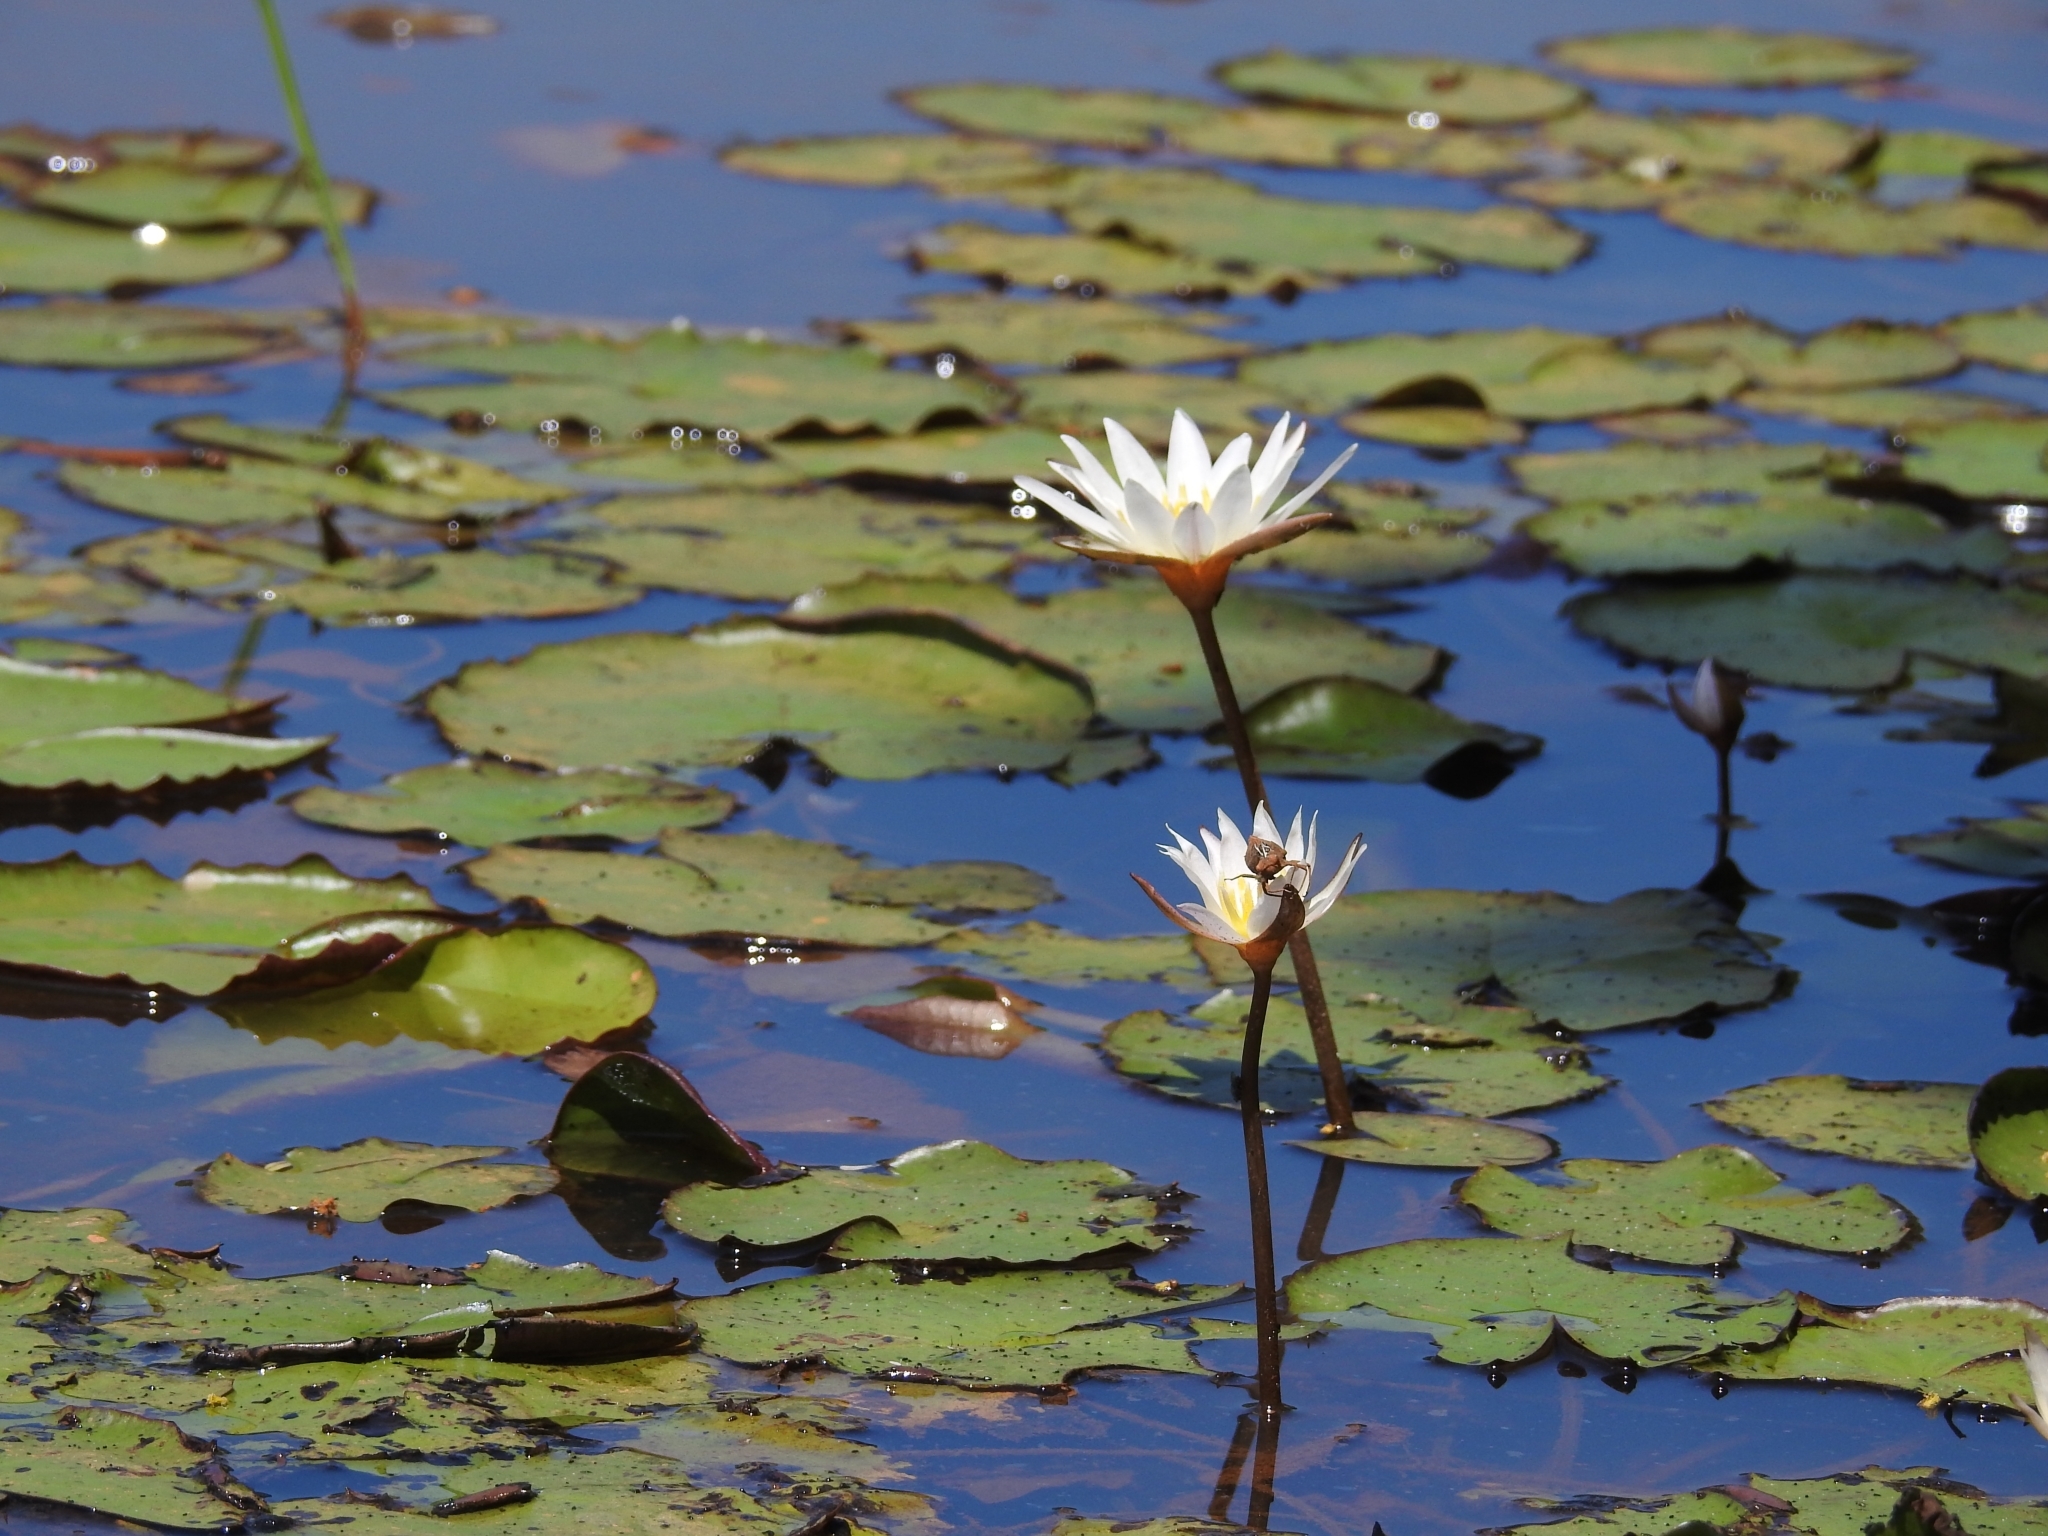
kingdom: Plantae
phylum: Tracheophyta
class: Magnoliopsida
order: Nymphaeales
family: Nymphaeaceae
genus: Nymphaea
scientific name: Nymphaea alba
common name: White water-lily
